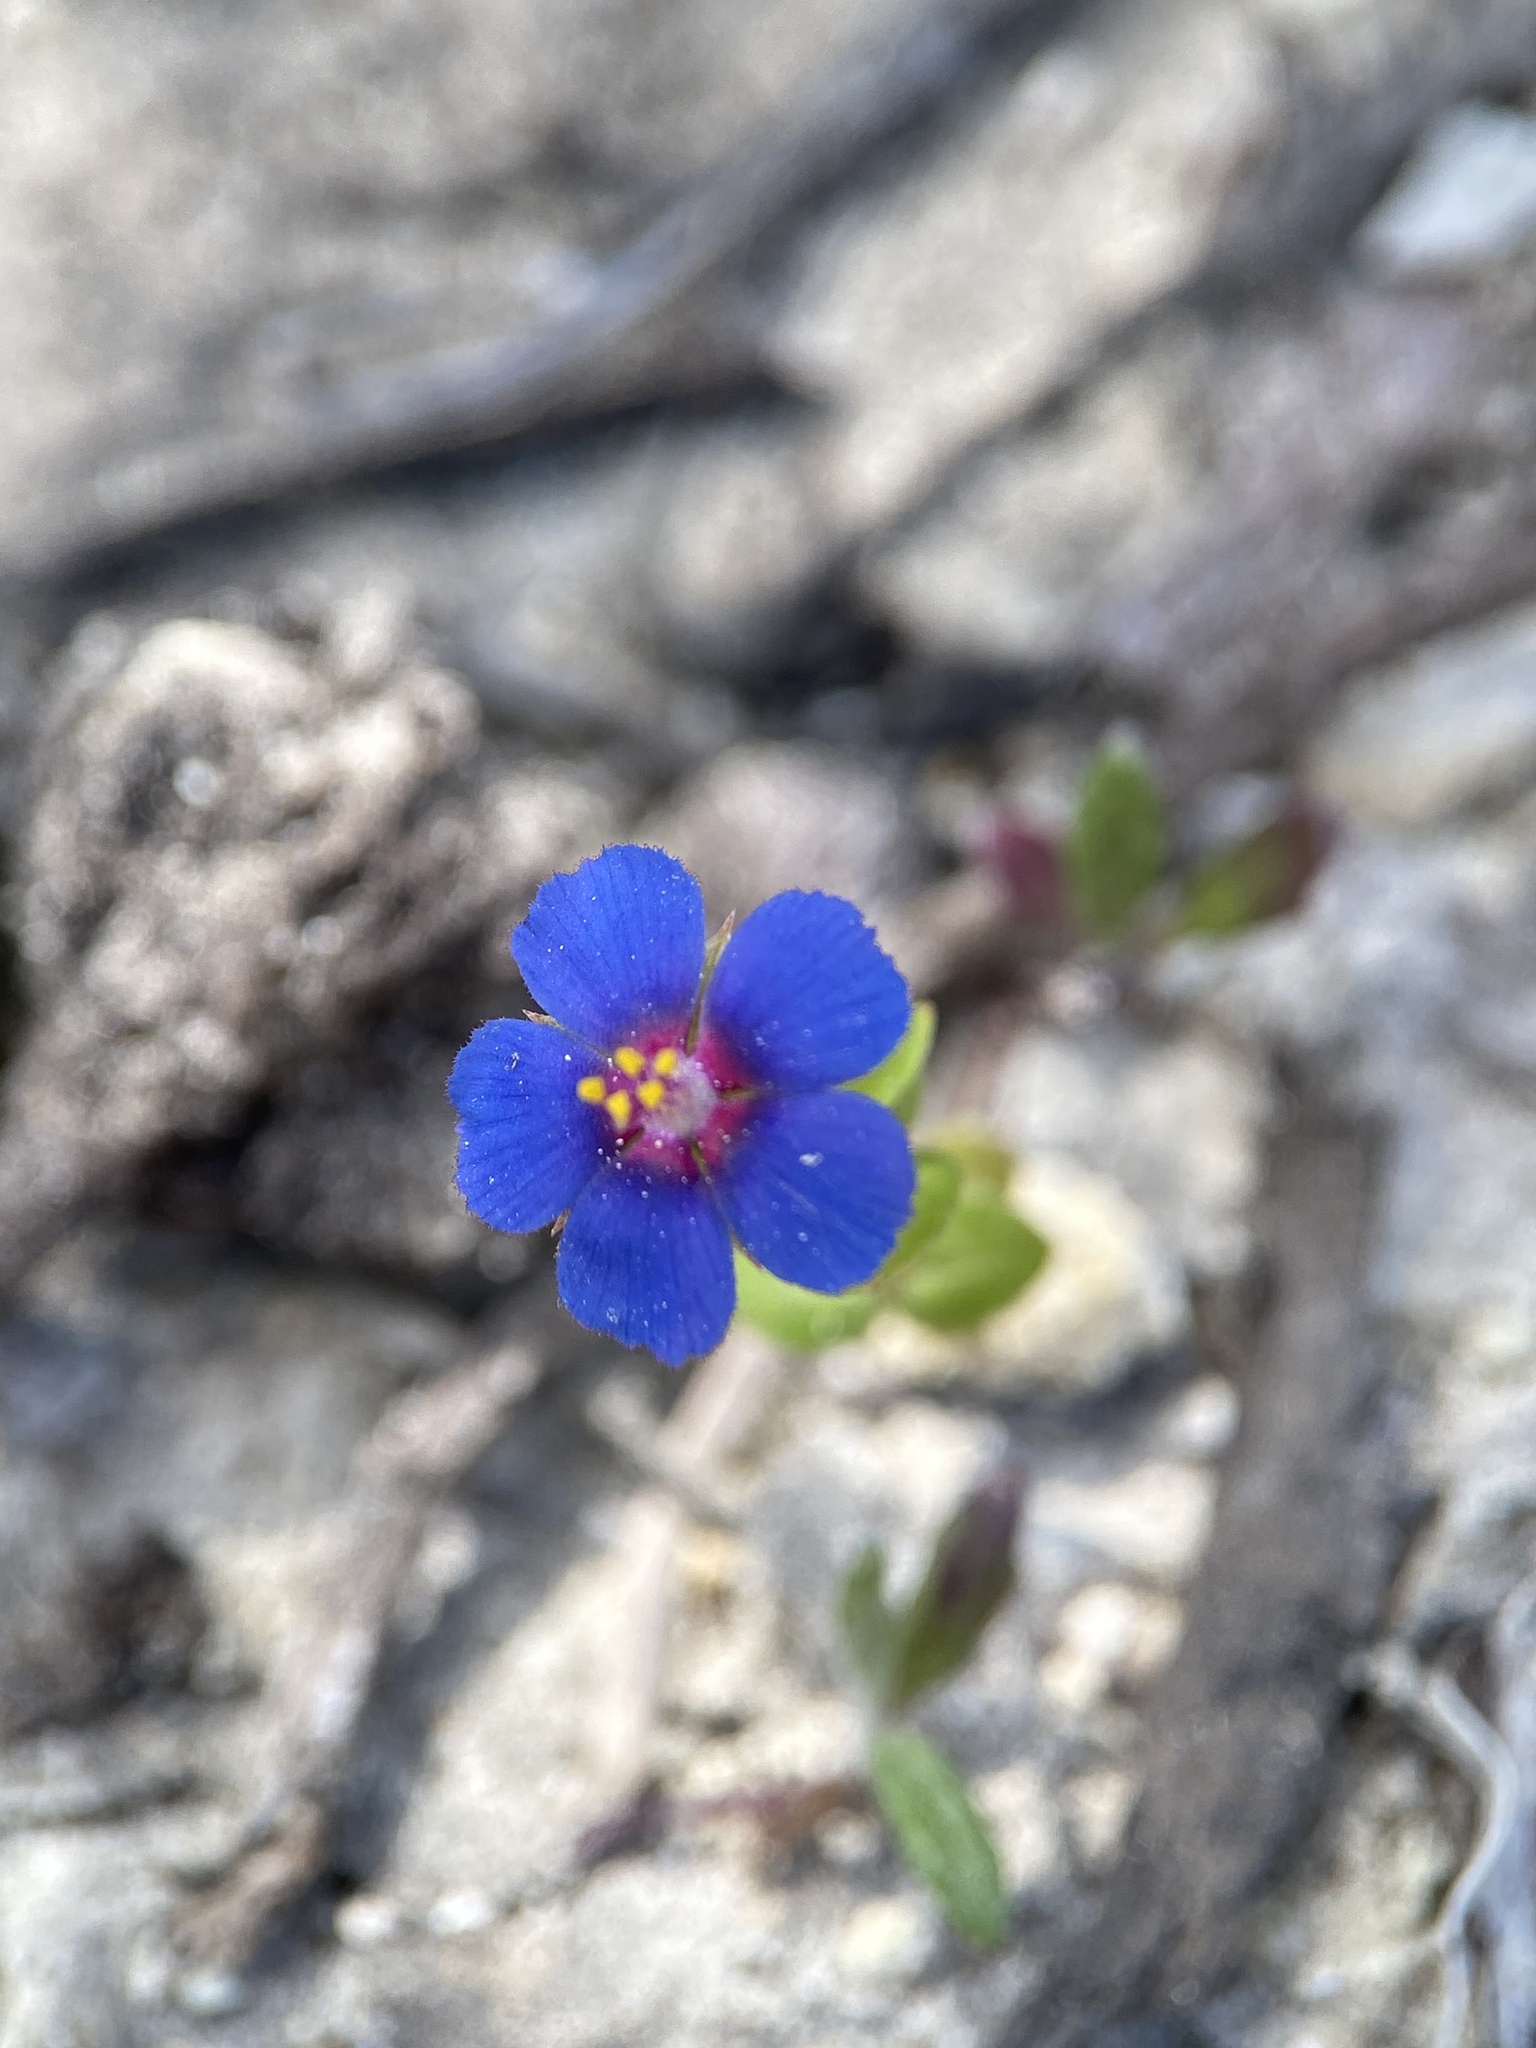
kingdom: Plantae
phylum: Tracheophyta
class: Magnoliopsida
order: Ericales
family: Primulaceae
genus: Lysimachia
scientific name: Lysimachia loeflingii
